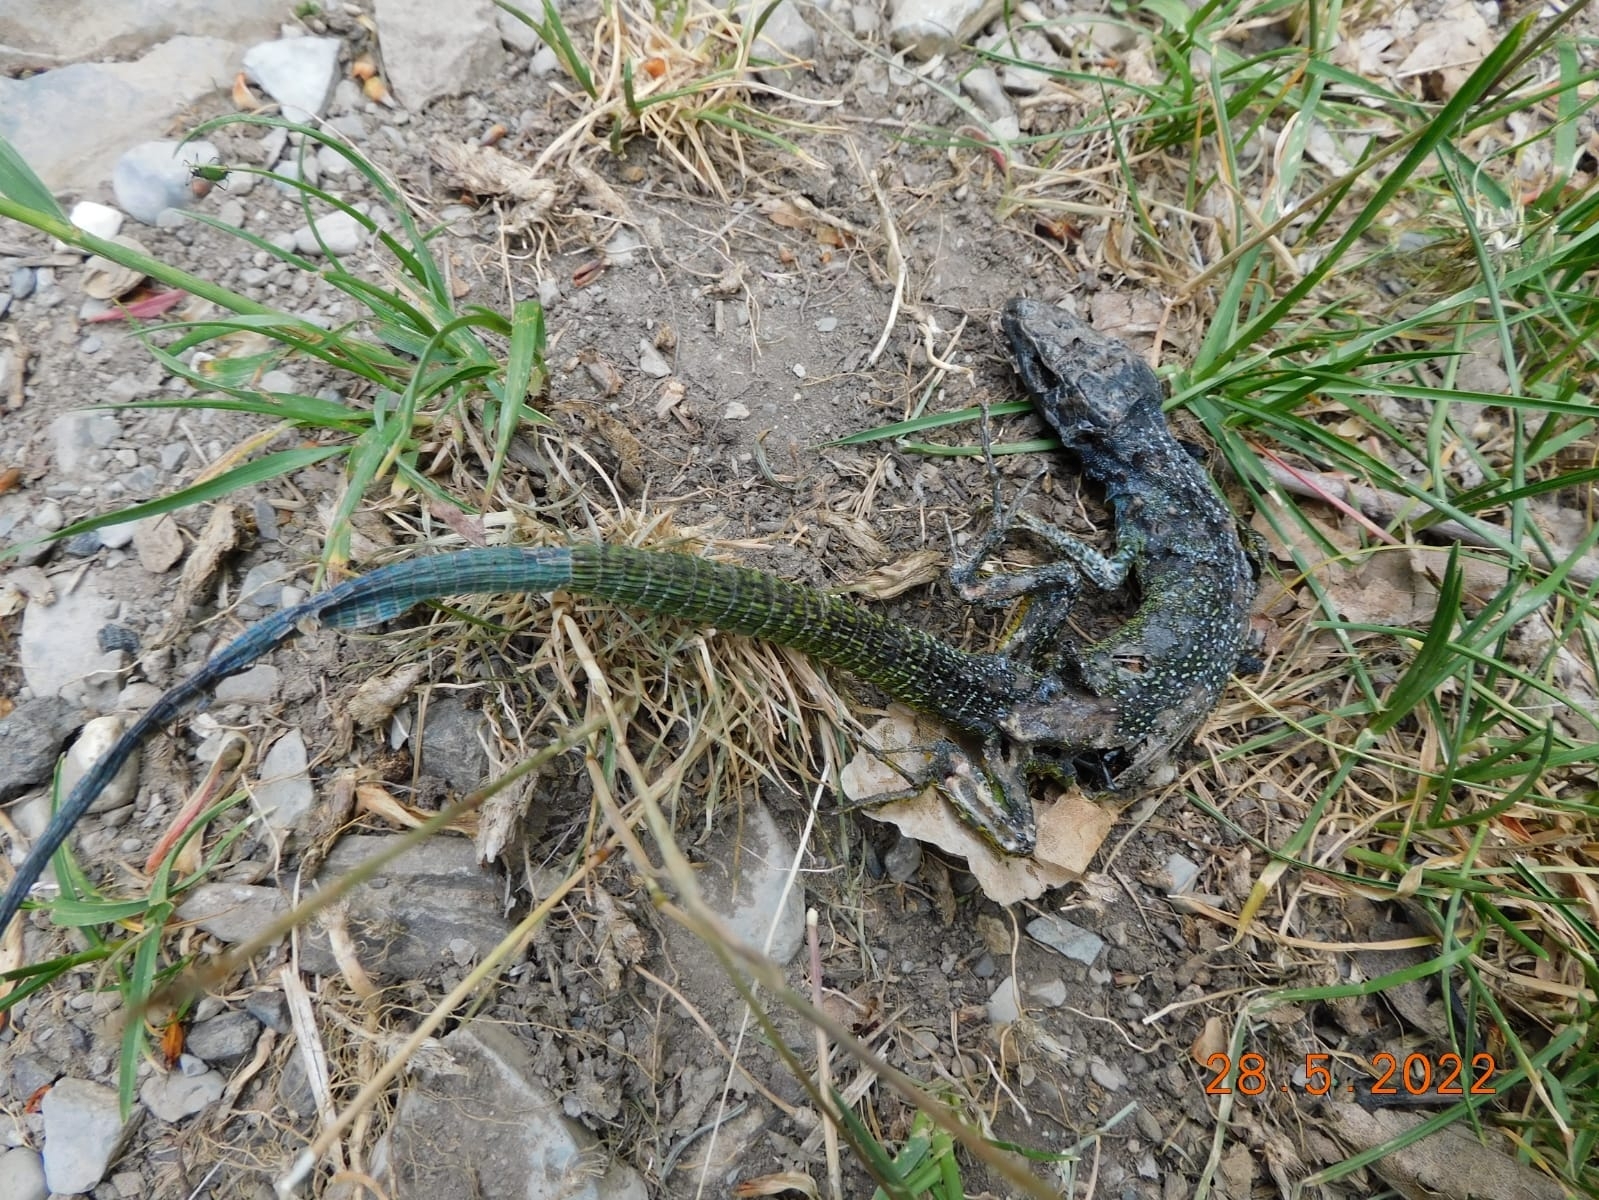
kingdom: Animalia
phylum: Chordata
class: Squamata
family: Lacertidae
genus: Lacerta
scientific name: Lacerta bilineata
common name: Western green lizard
